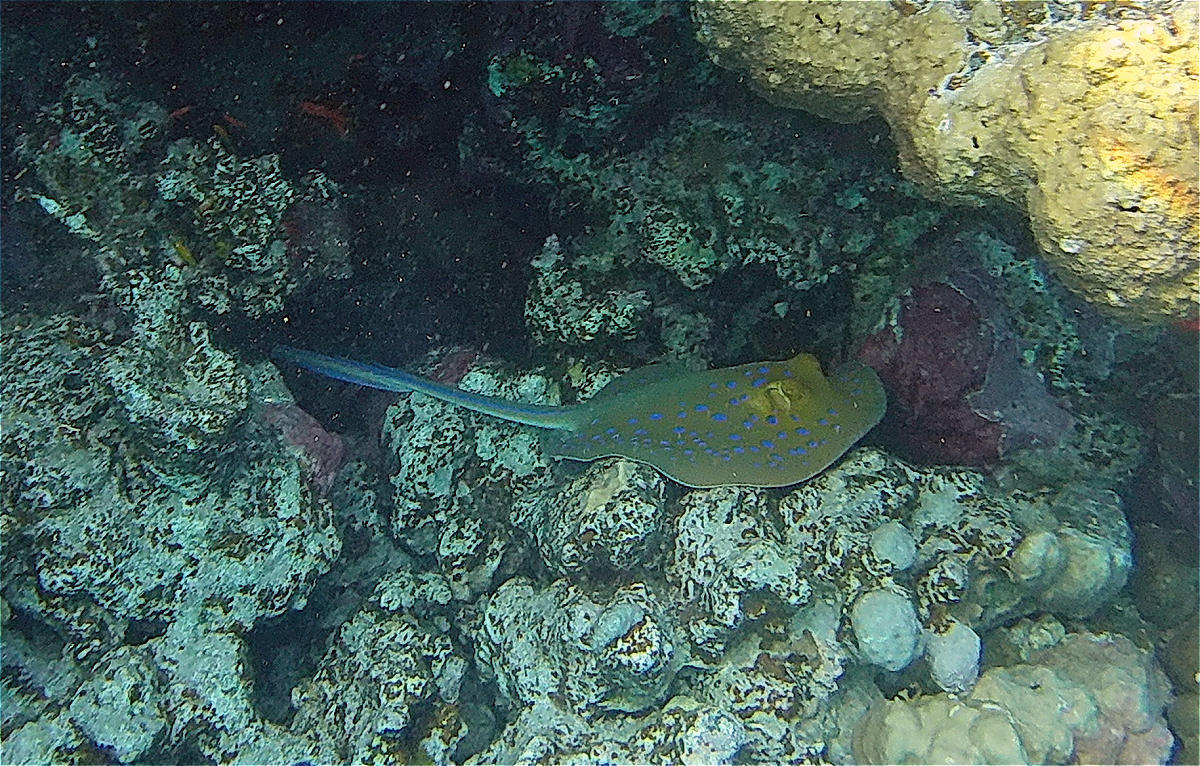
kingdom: Animalia
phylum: Chordata
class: Elasmobranchii
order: Myliobatiformes
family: Dasyatidae
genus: Taeniura
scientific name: Taeniura lymma
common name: Bluespotted ribbontail ray
